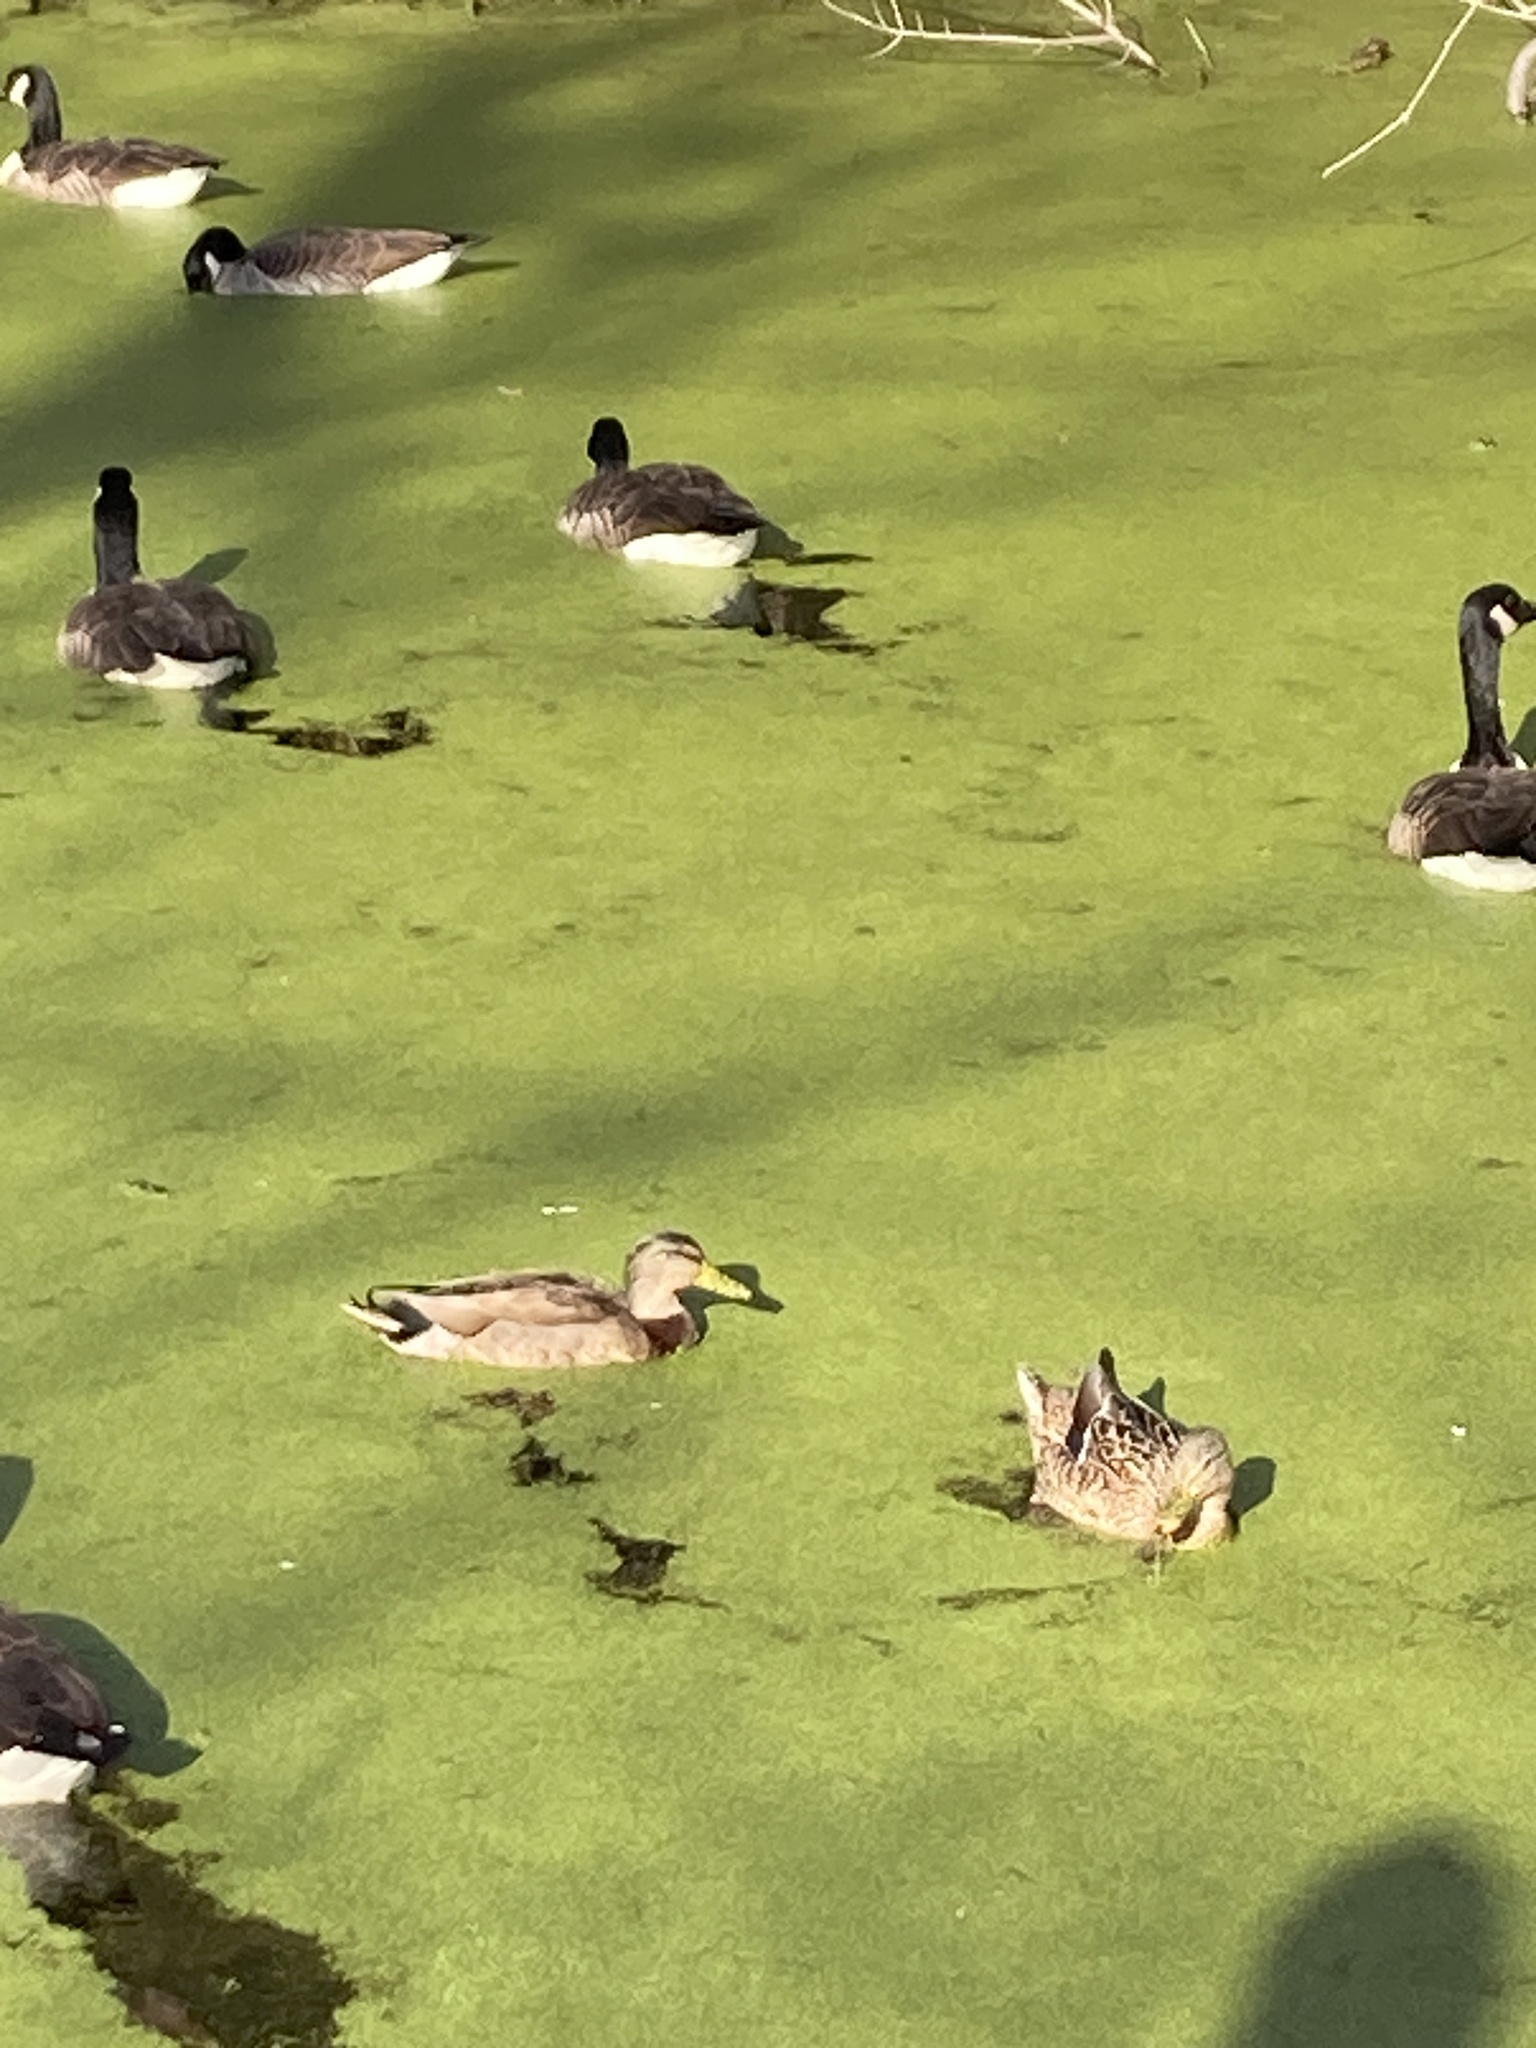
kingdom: Animalia
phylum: Chordata
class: Aves
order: Anseriformes
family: Anatidae
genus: Anas
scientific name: Anas platyrhynchos
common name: Mallard
